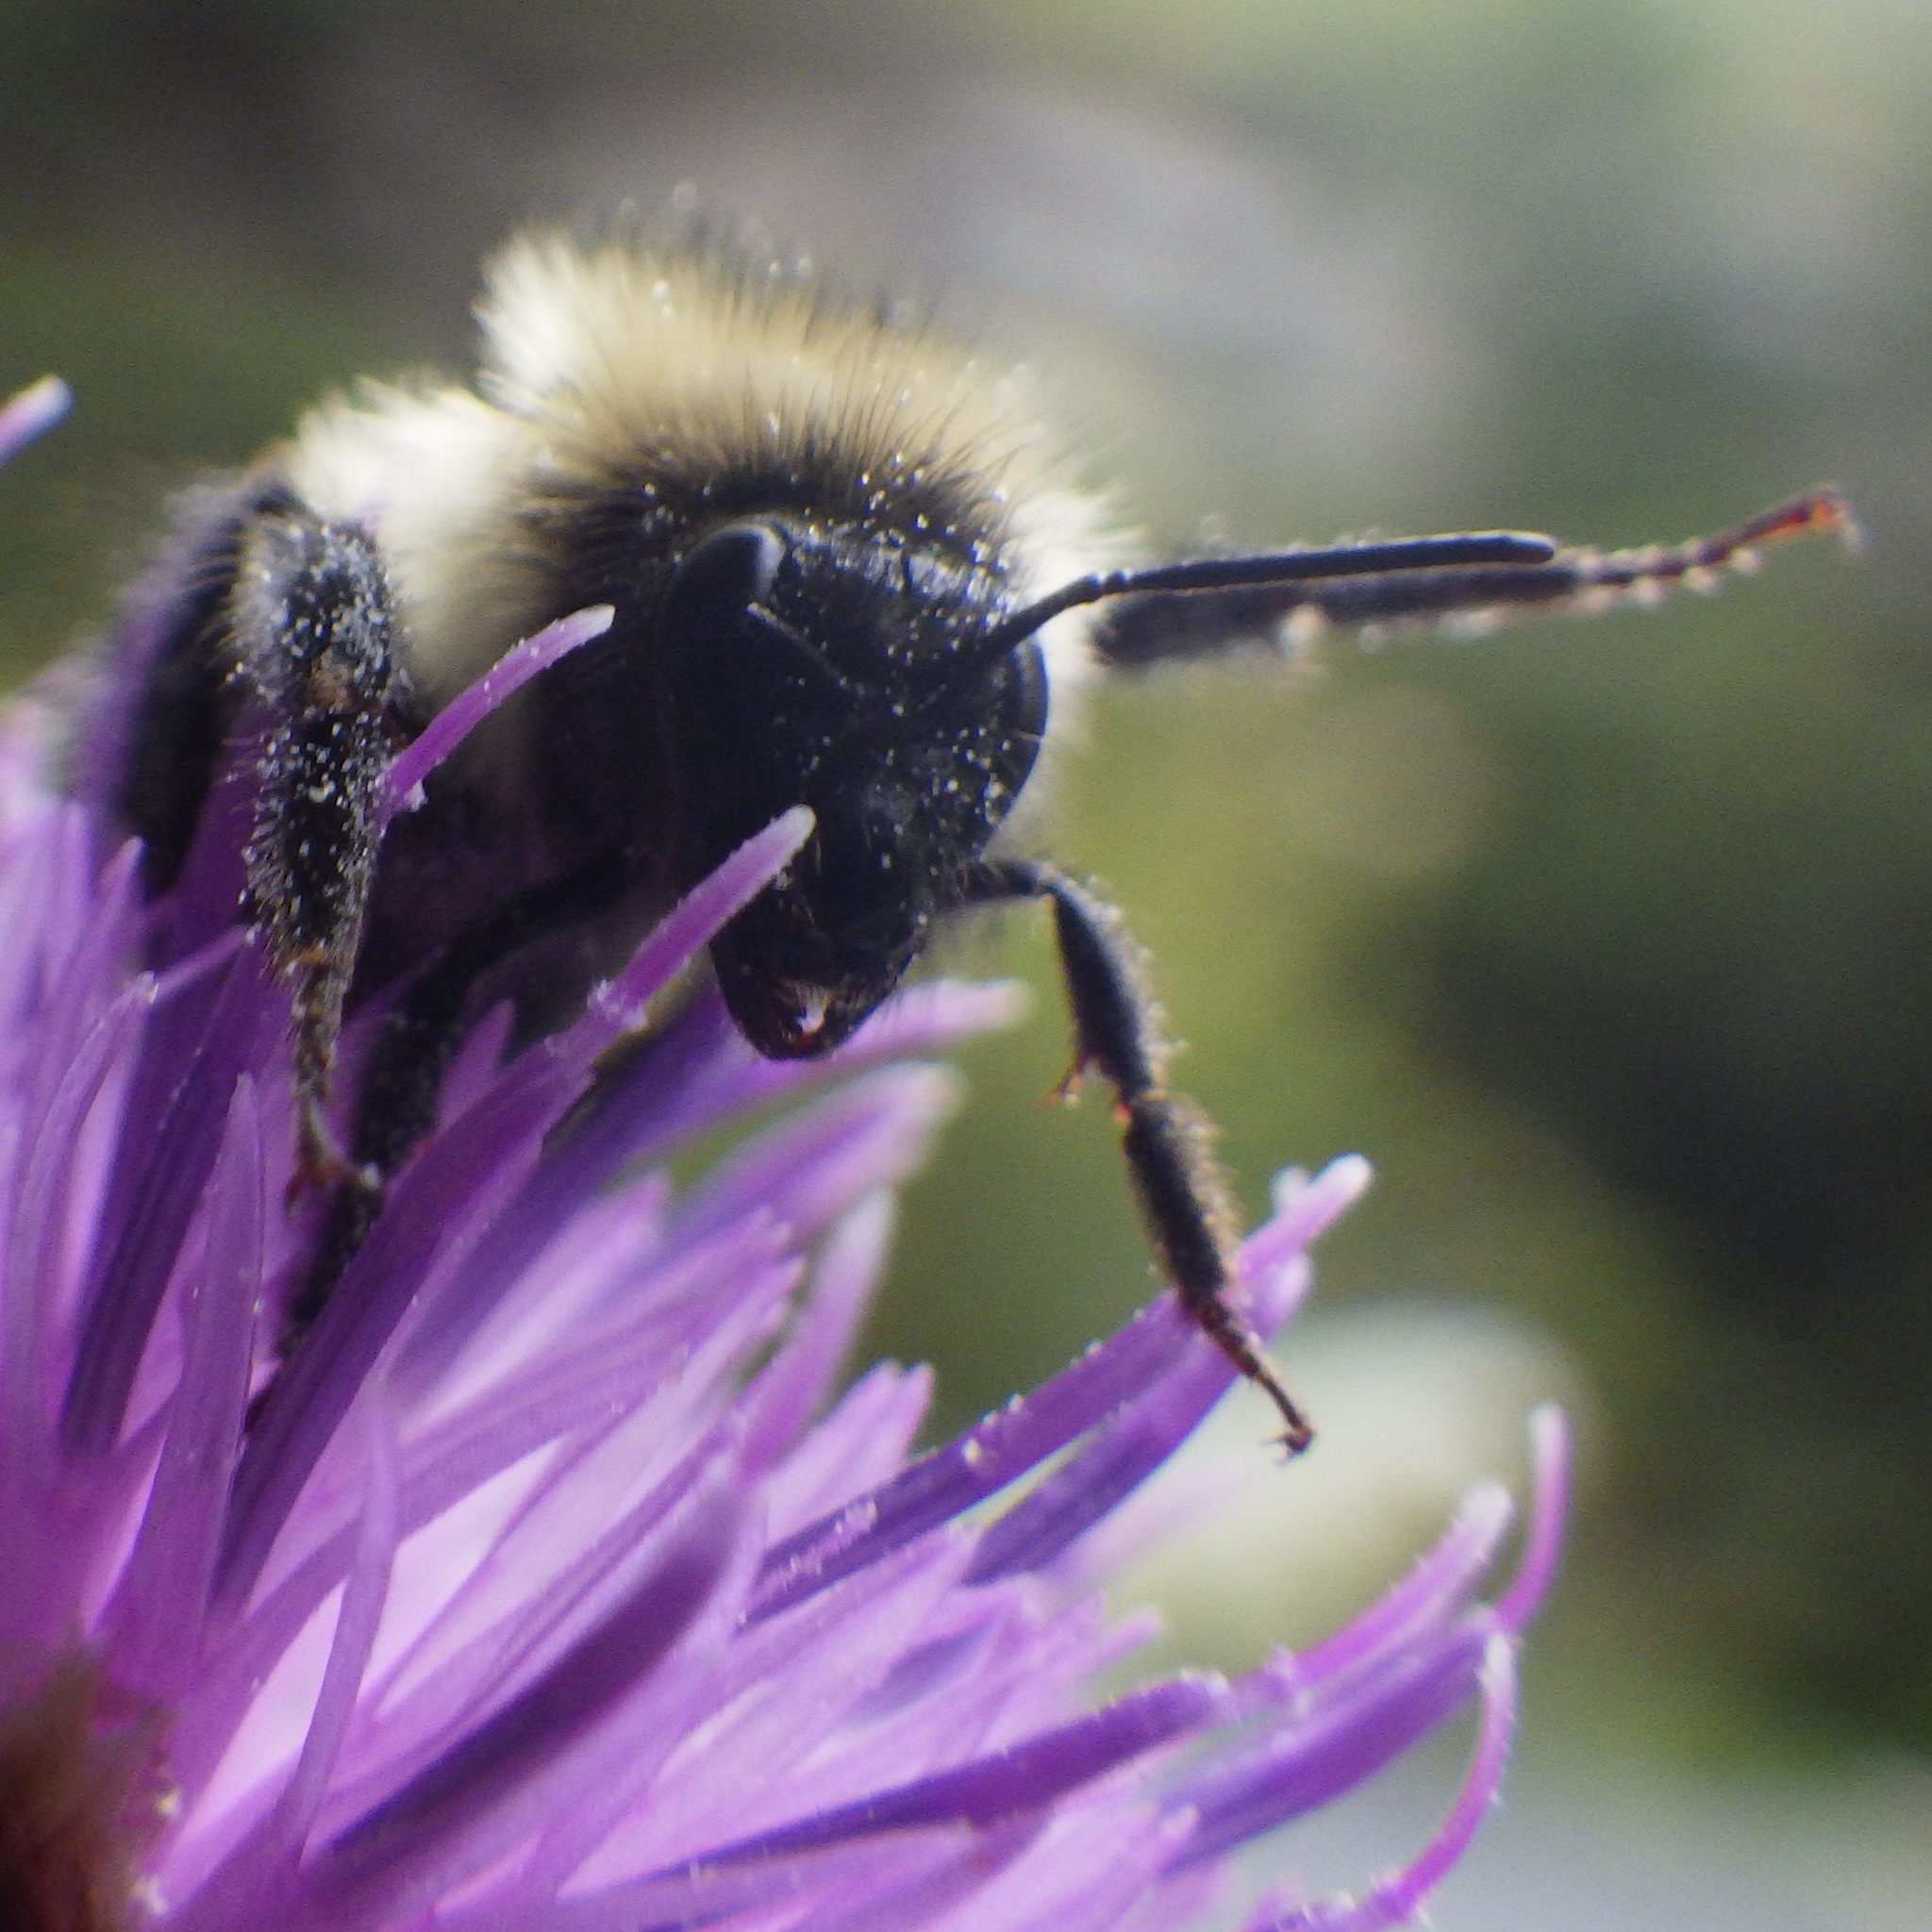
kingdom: Animalia
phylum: Arthropoda
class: Insecta
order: Hymenoptera
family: Apidae
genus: Bombus
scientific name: Bombus vagans
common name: Half-black bumble bee
